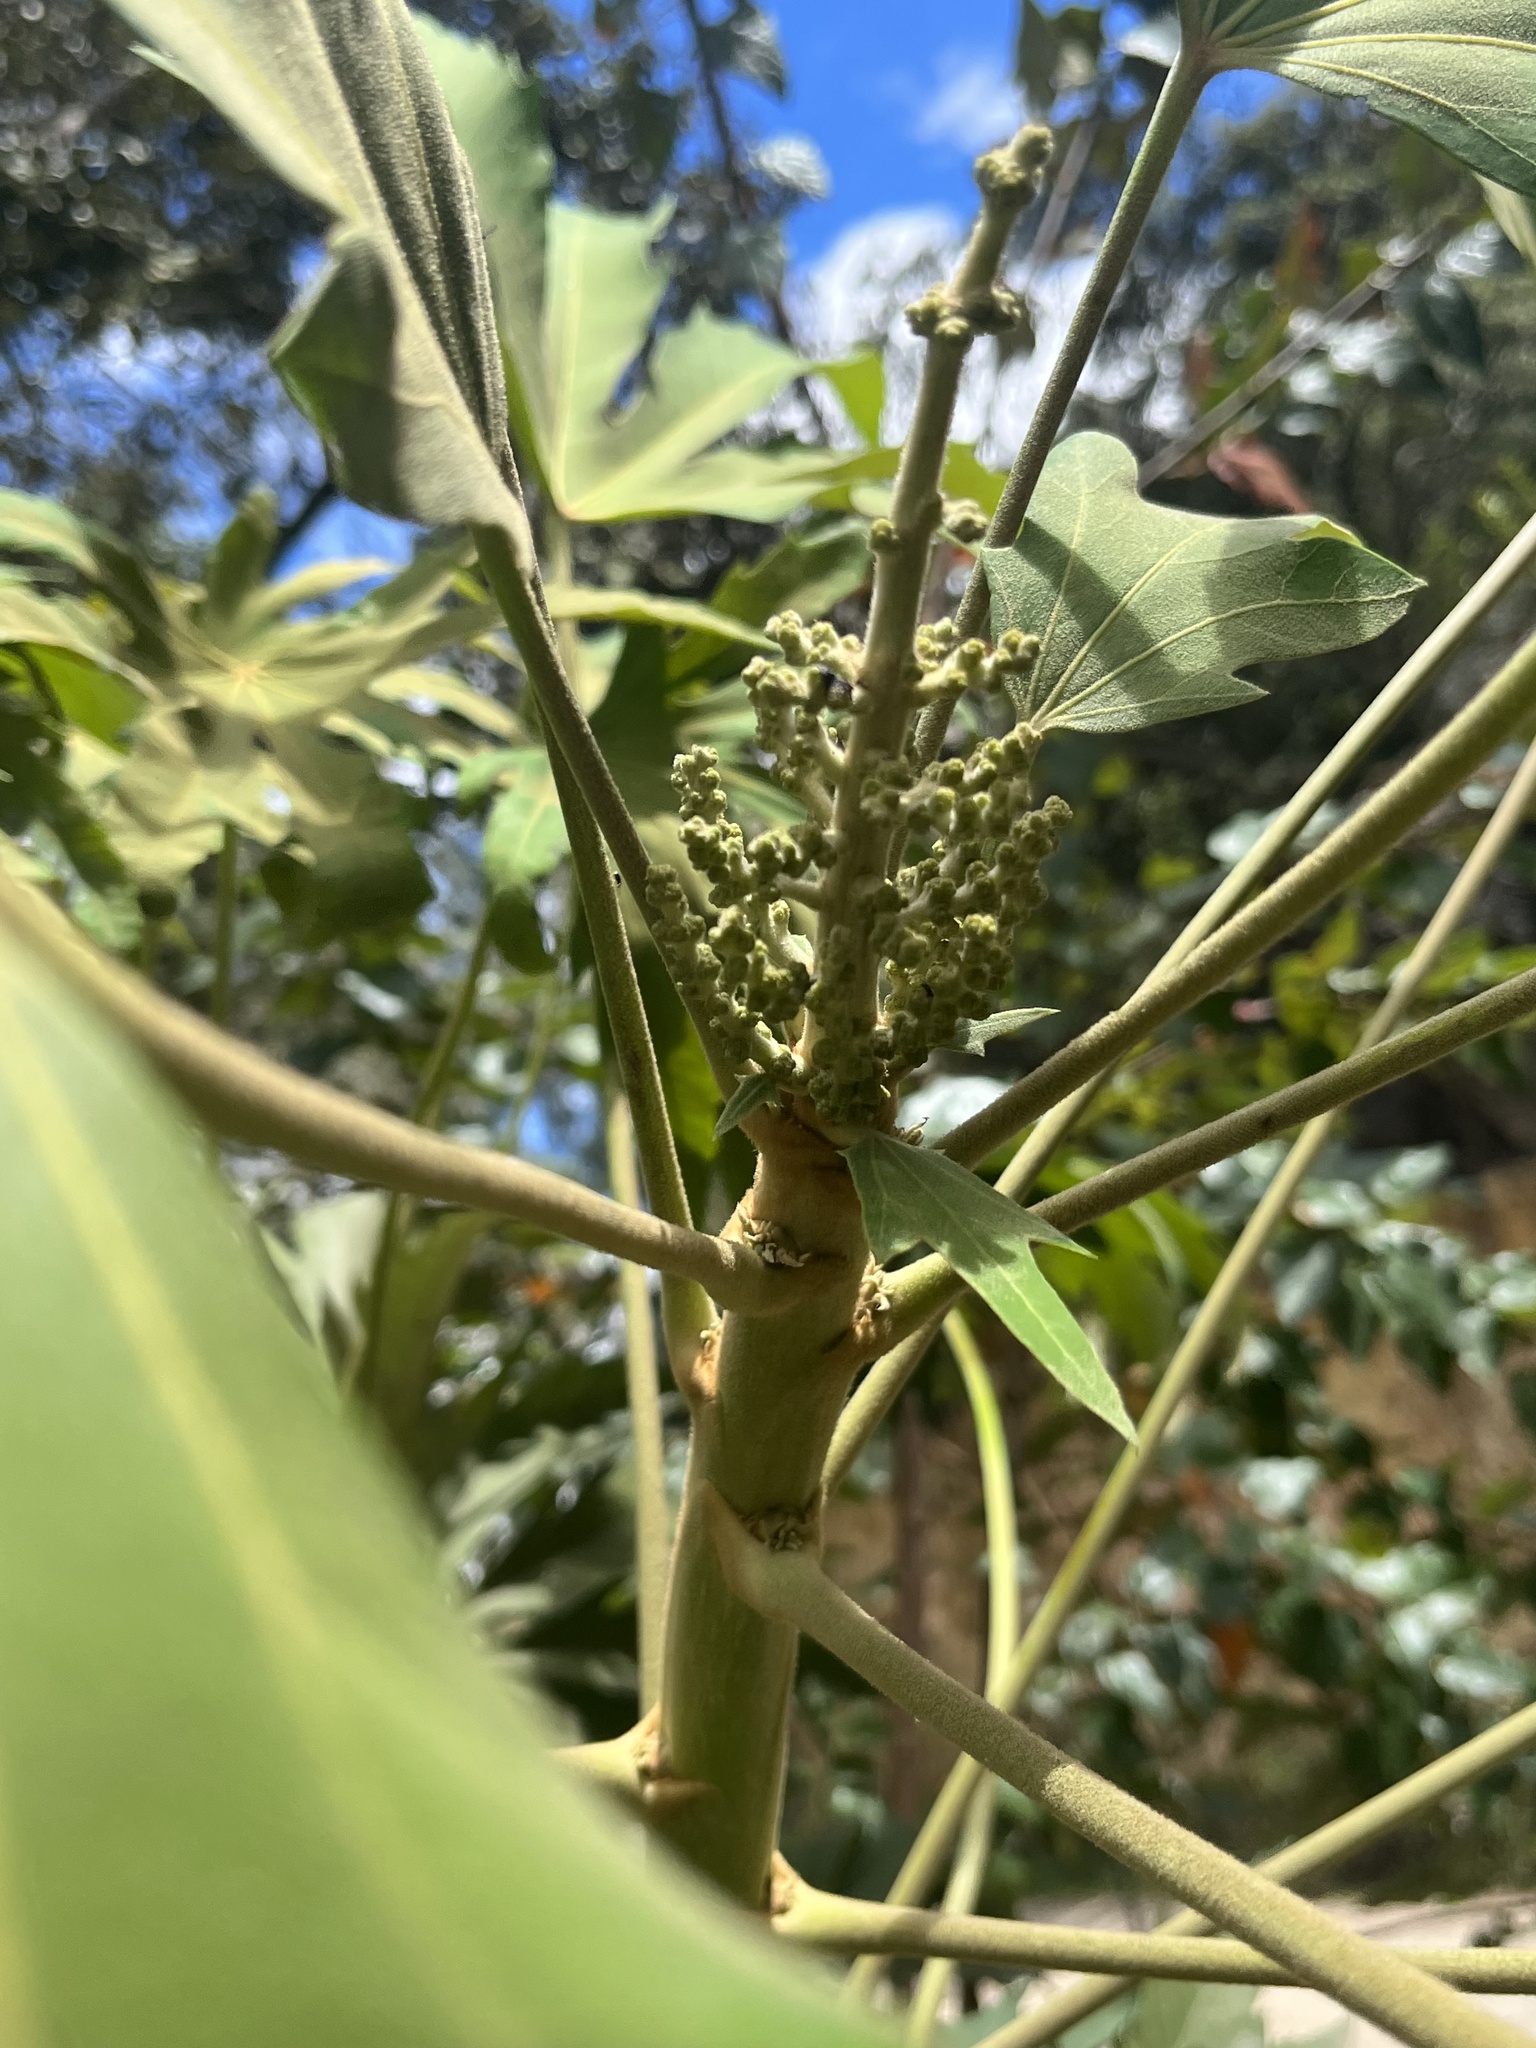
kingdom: Plantae
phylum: Tracheophyta
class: Magnoliopsida
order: Apiales
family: Araliaceae
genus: Oreopanax
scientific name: Oreopanax incisus
